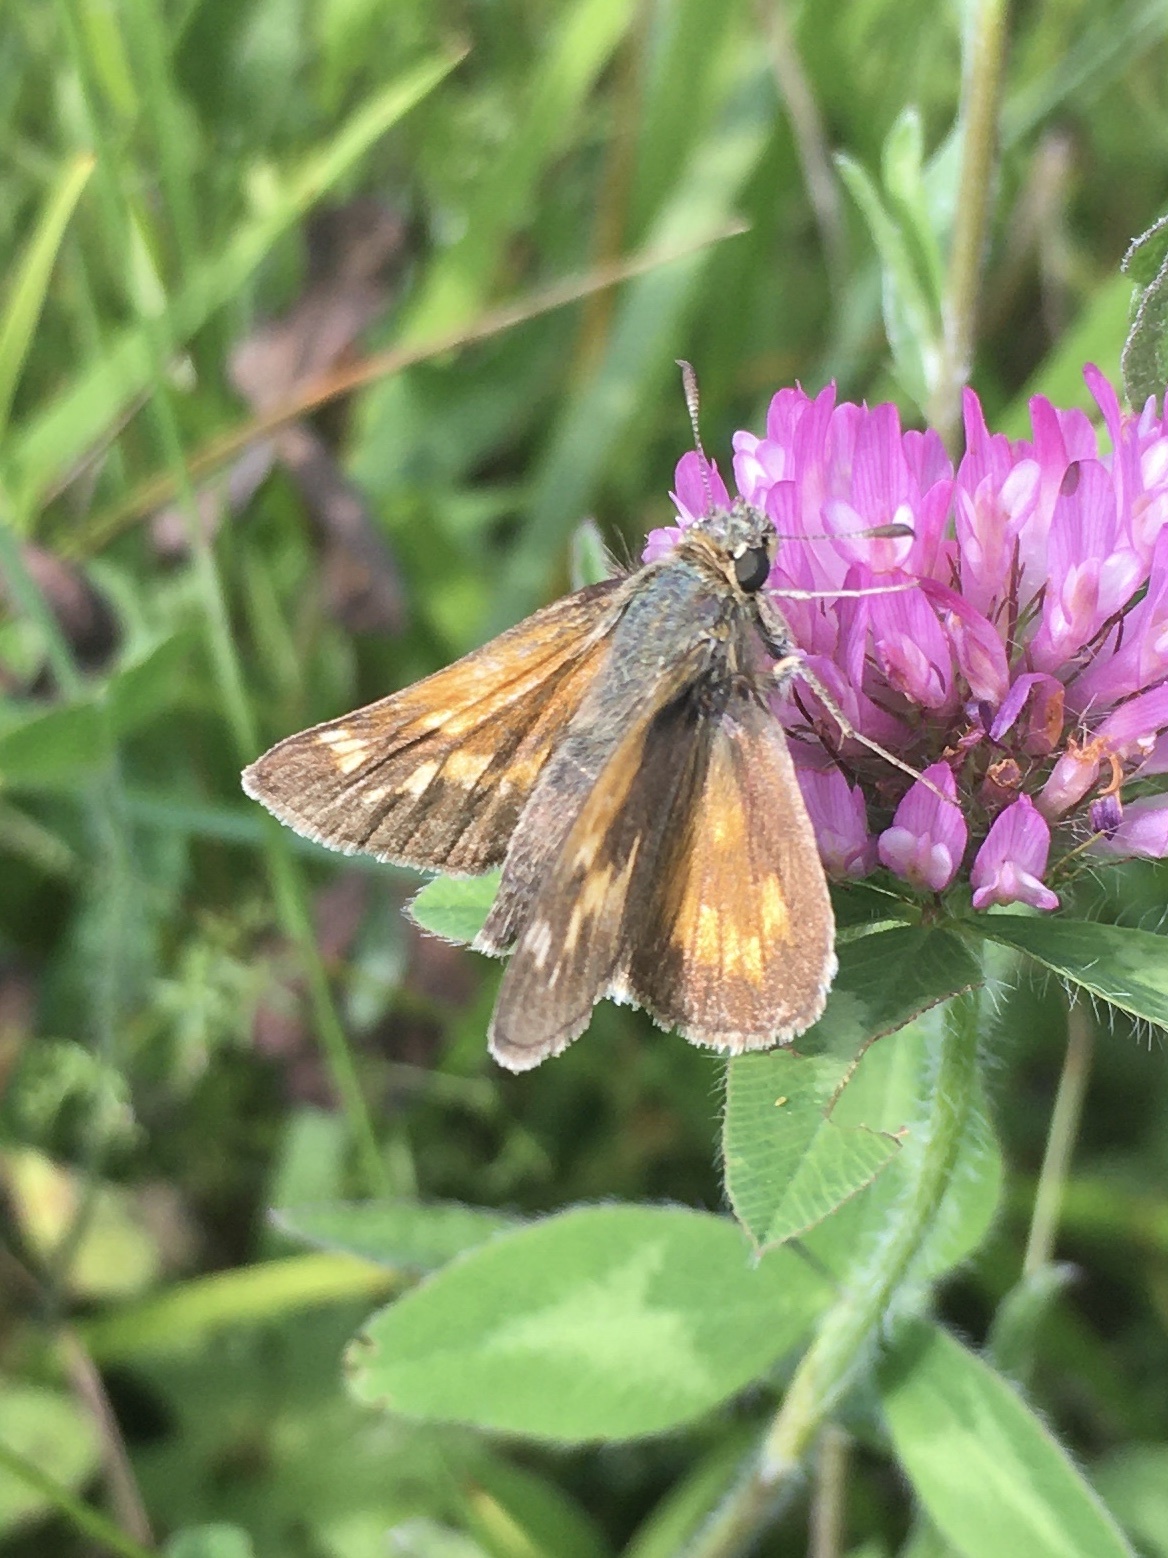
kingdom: Animalia
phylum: Arthropoda
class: Insecta
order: Lepidoptera
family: Hesperiidae
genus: Polites
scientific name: Polites mystic
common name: Long dash
